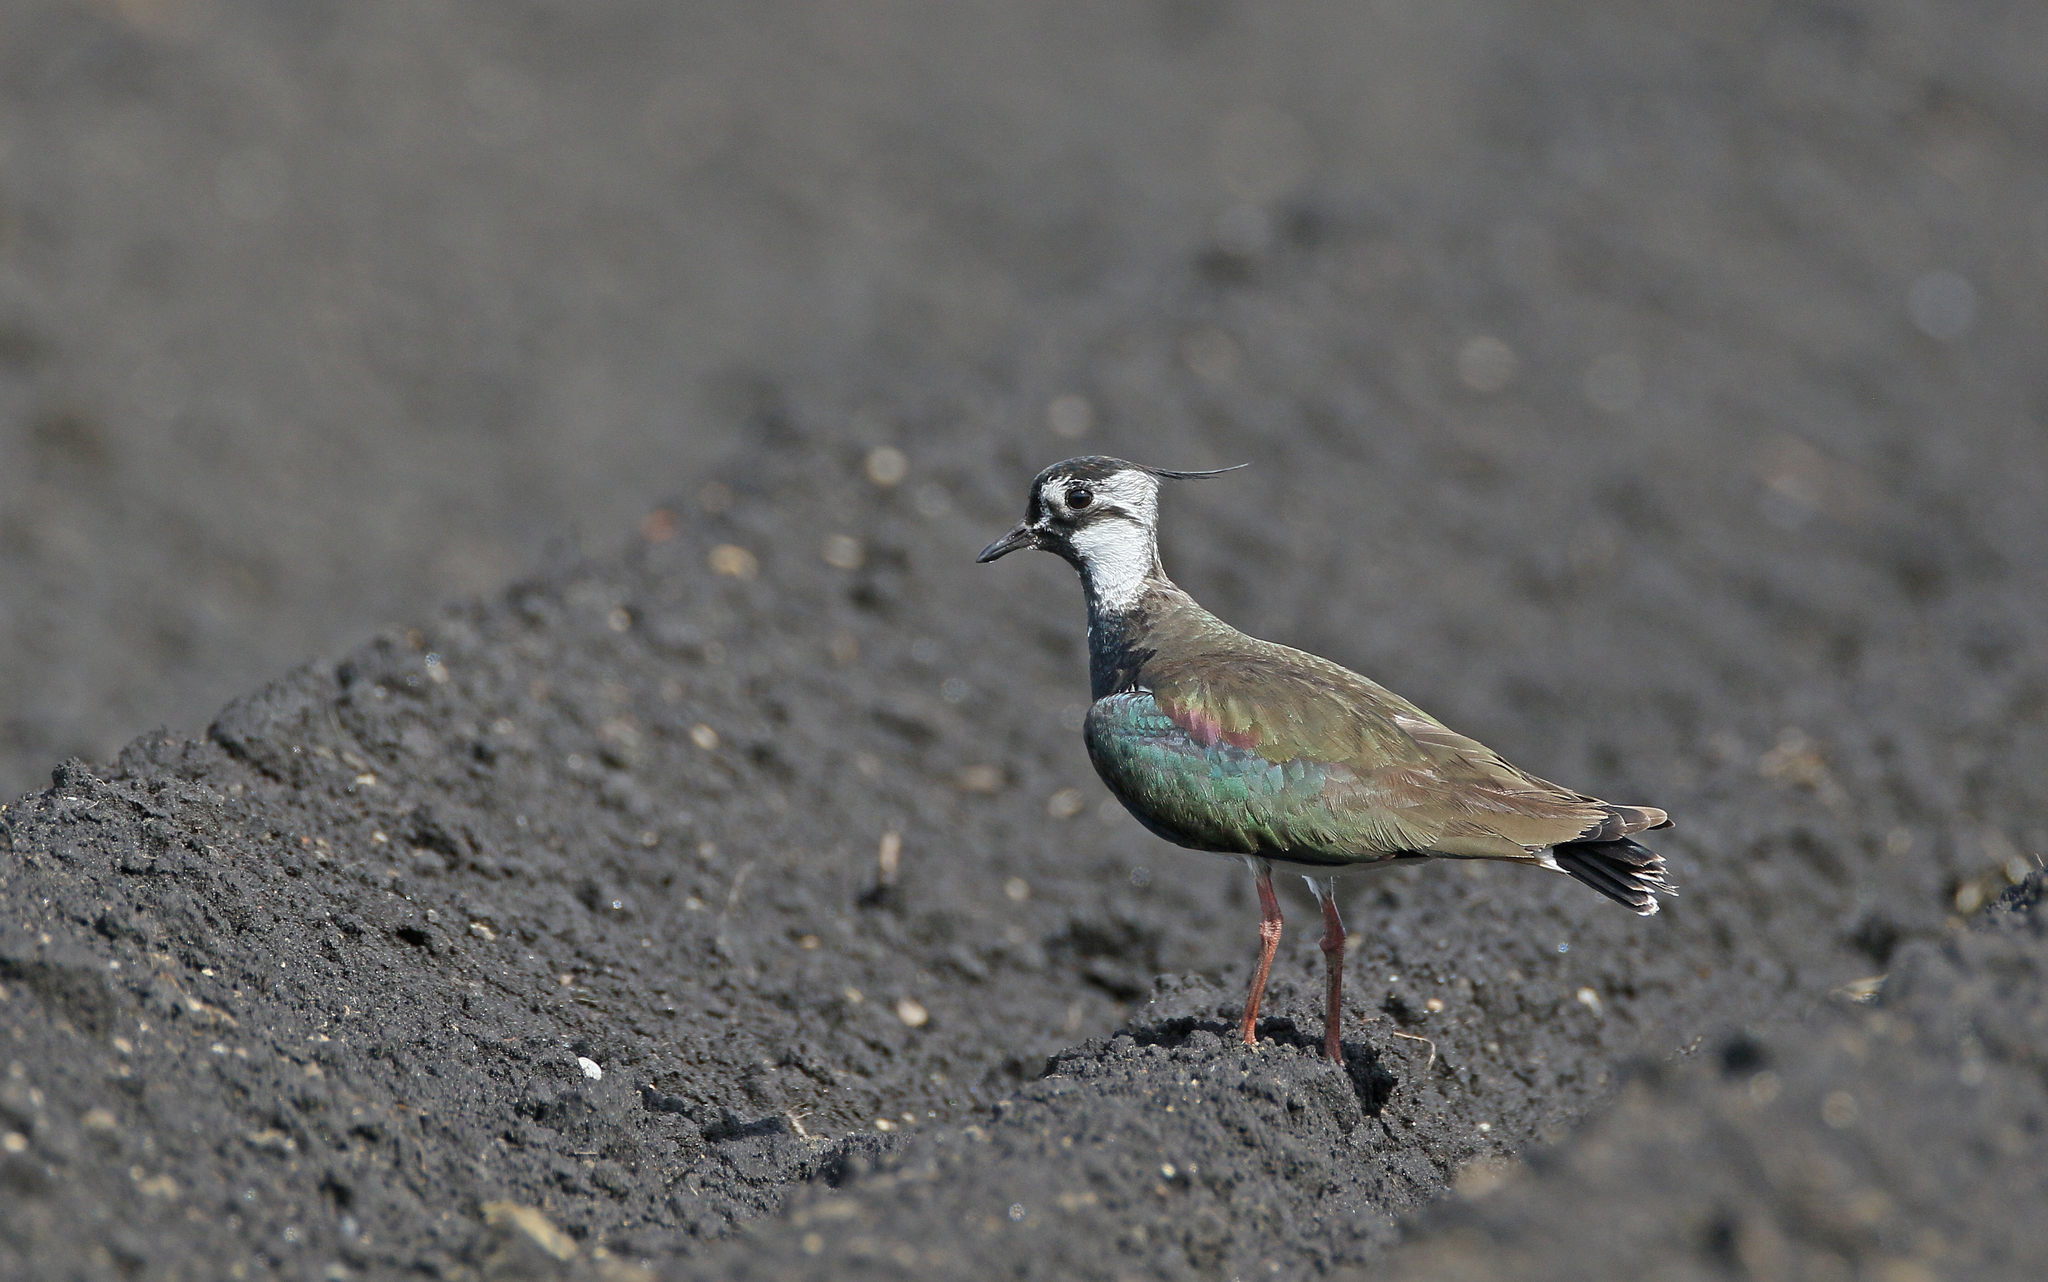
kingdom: Animalia
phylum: Chordata
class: Aves
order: Charadriiformes
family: Charadriidae
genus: Vanellus
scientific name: Vanellus vanellus
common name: Northern lapwing
